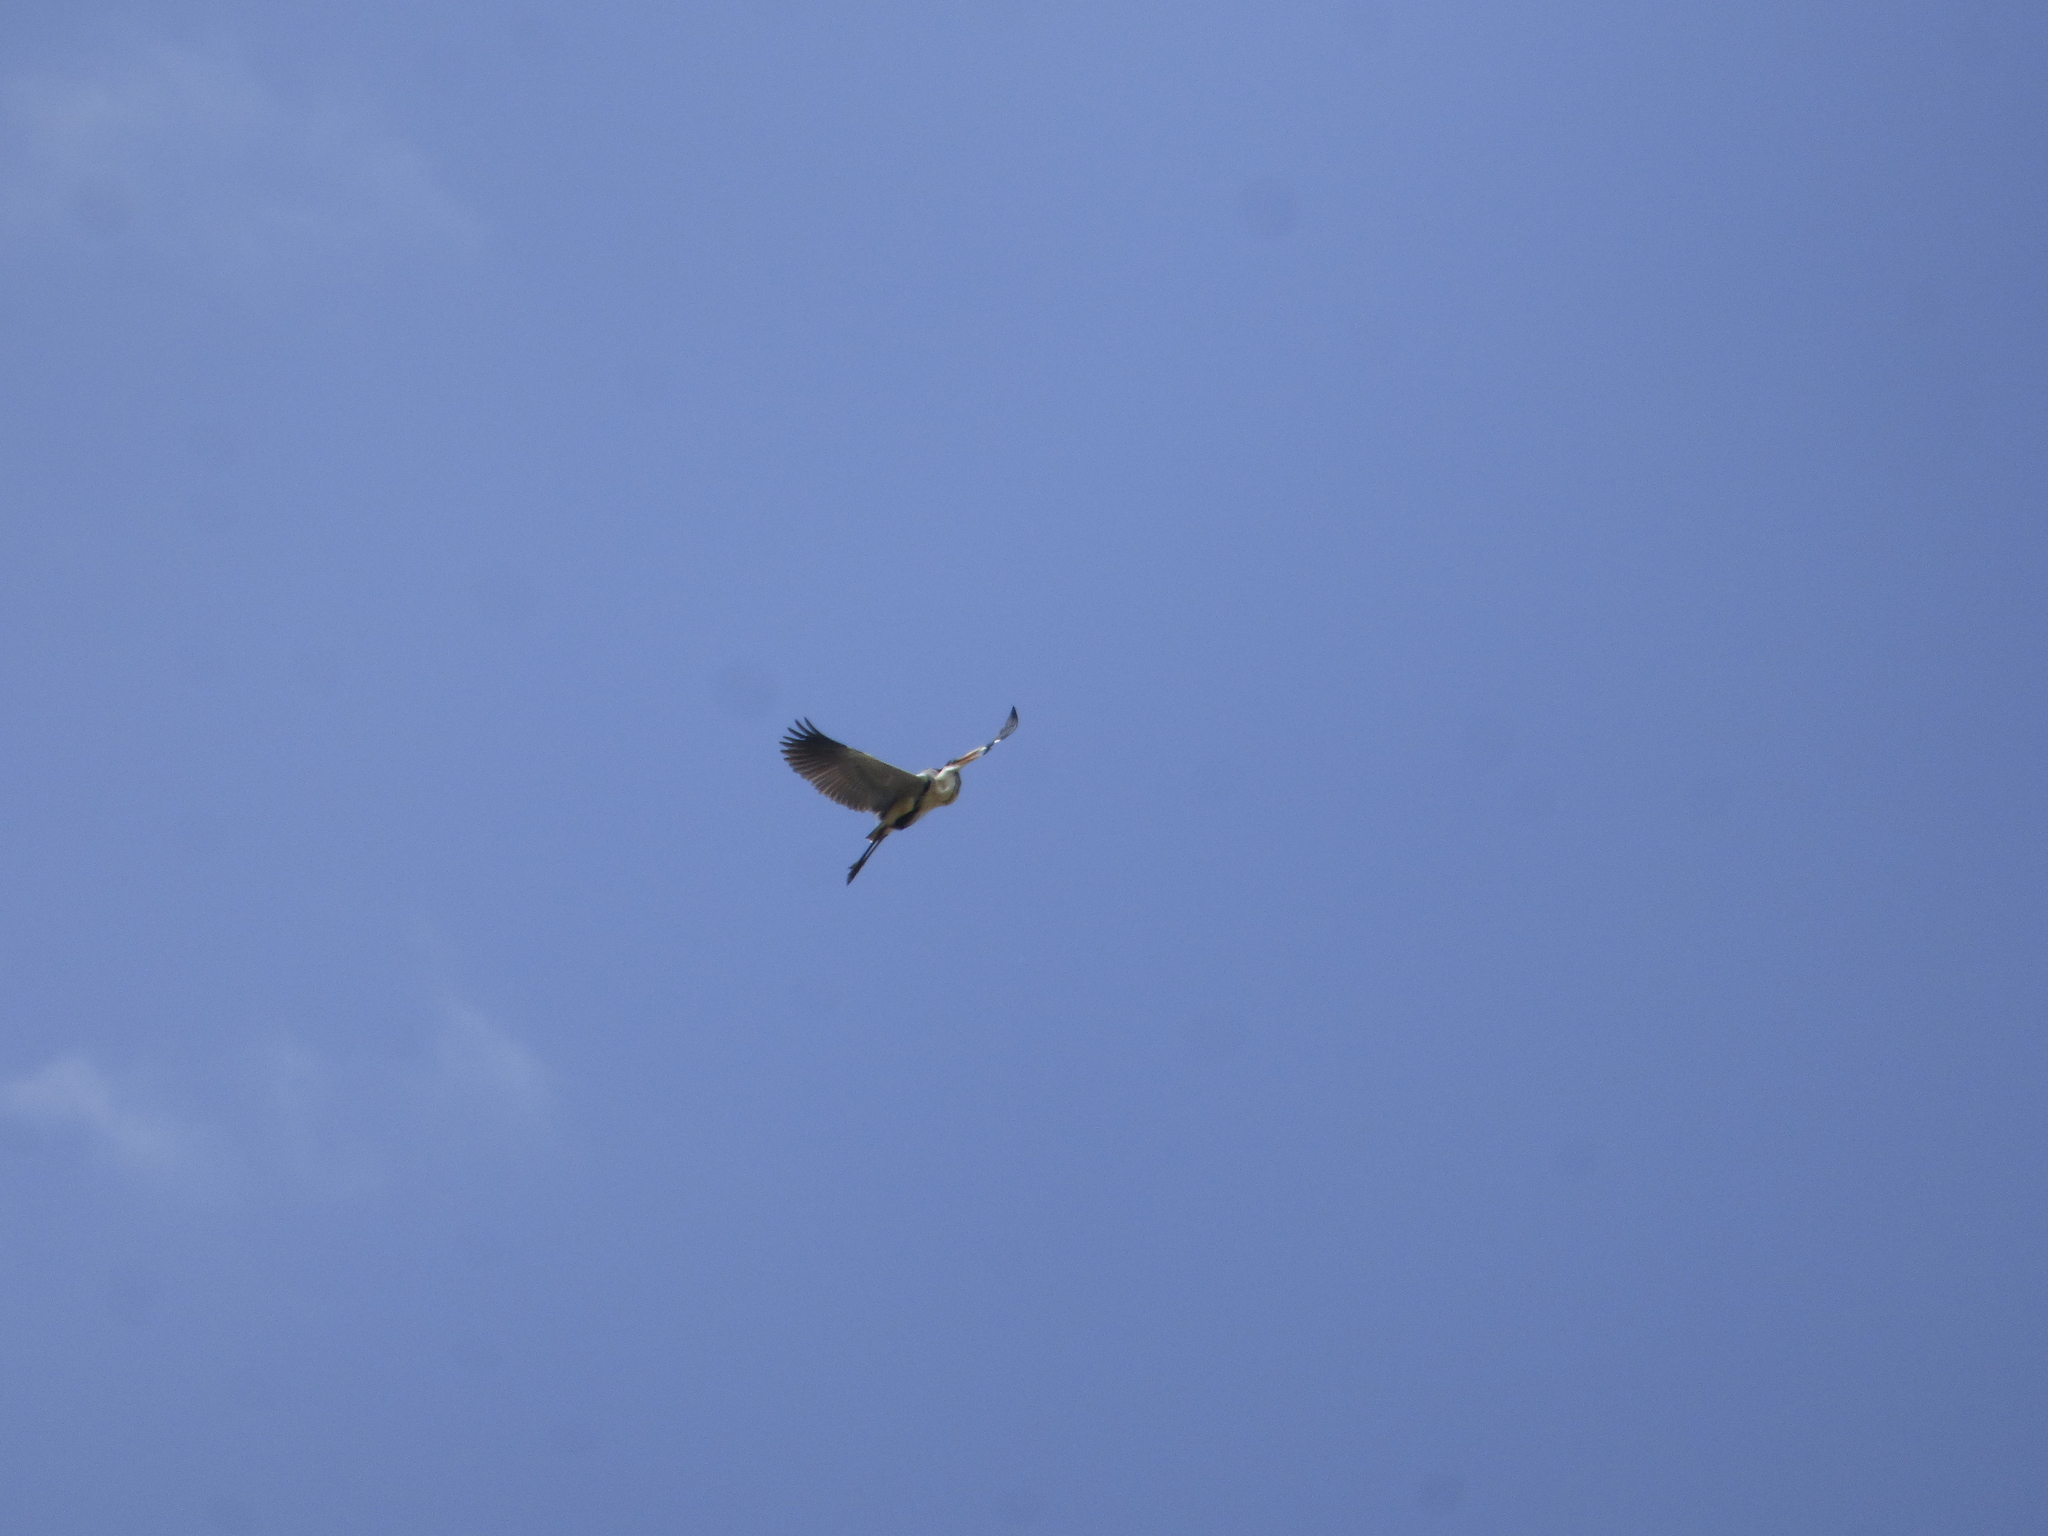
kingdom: Animalia
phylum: Chordata
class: Aves
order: Pelecaniformes
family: Ardeidae
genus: Ardea
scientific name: Ardea cocoi
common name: Cocoi heron
